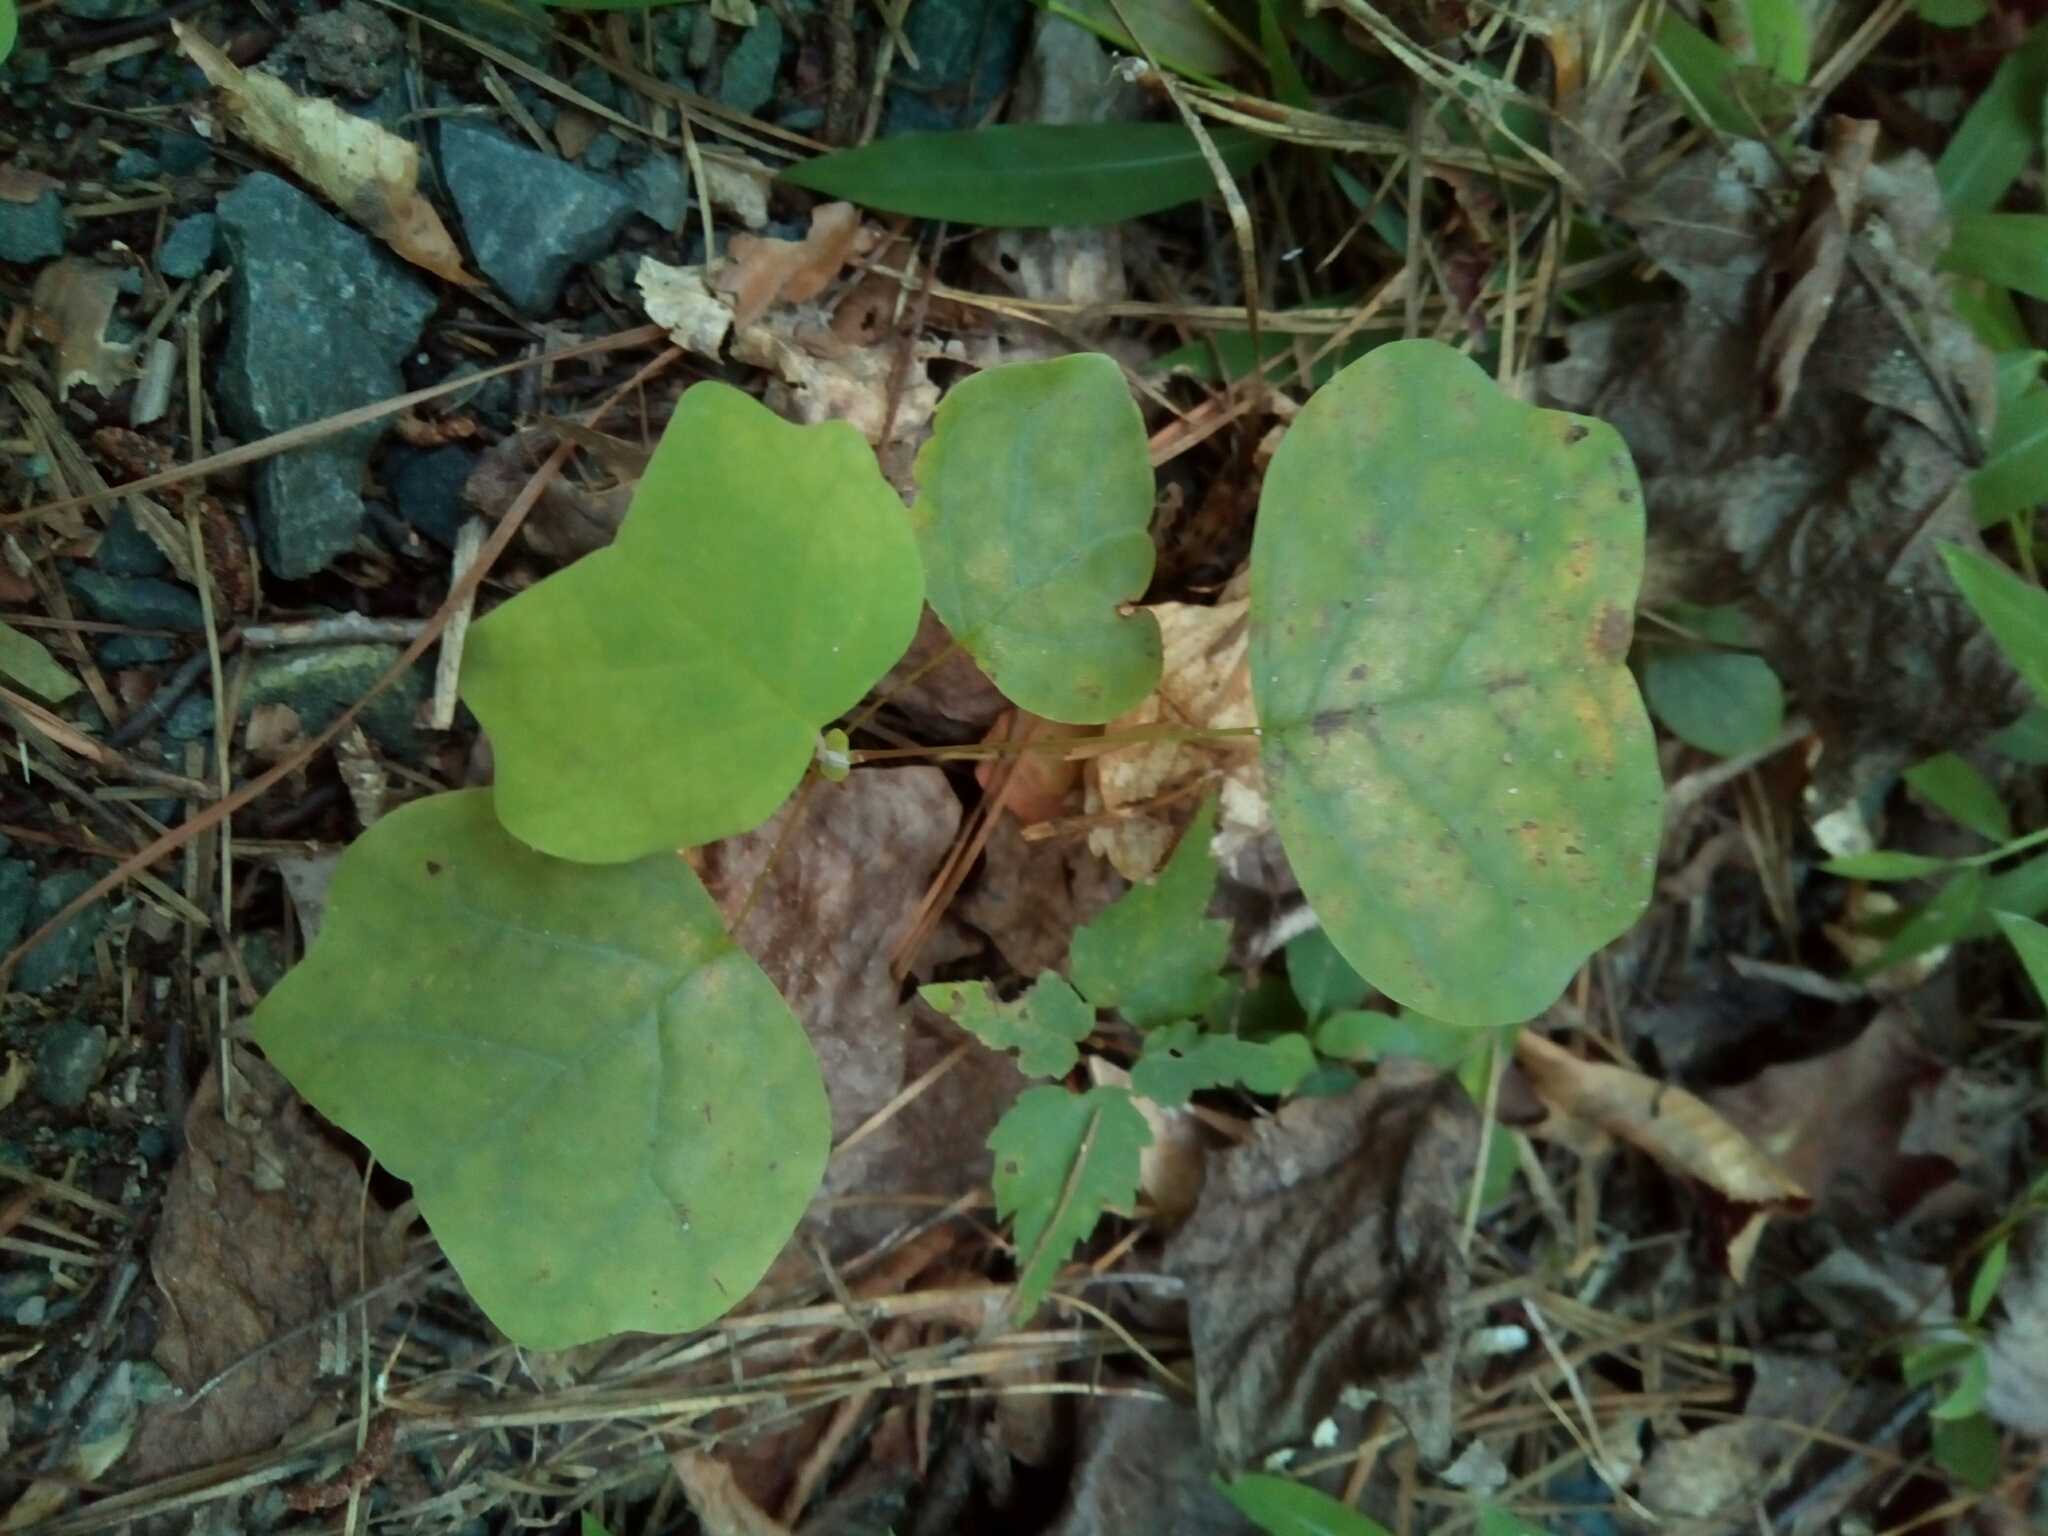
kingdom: Plantae
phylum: Tracheophyta
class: Magnoliopsida
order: Magnoliales
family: Magnoliaceae
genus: Liriodendron
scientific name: Liriodendron tulipifera
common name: Tulip tree
